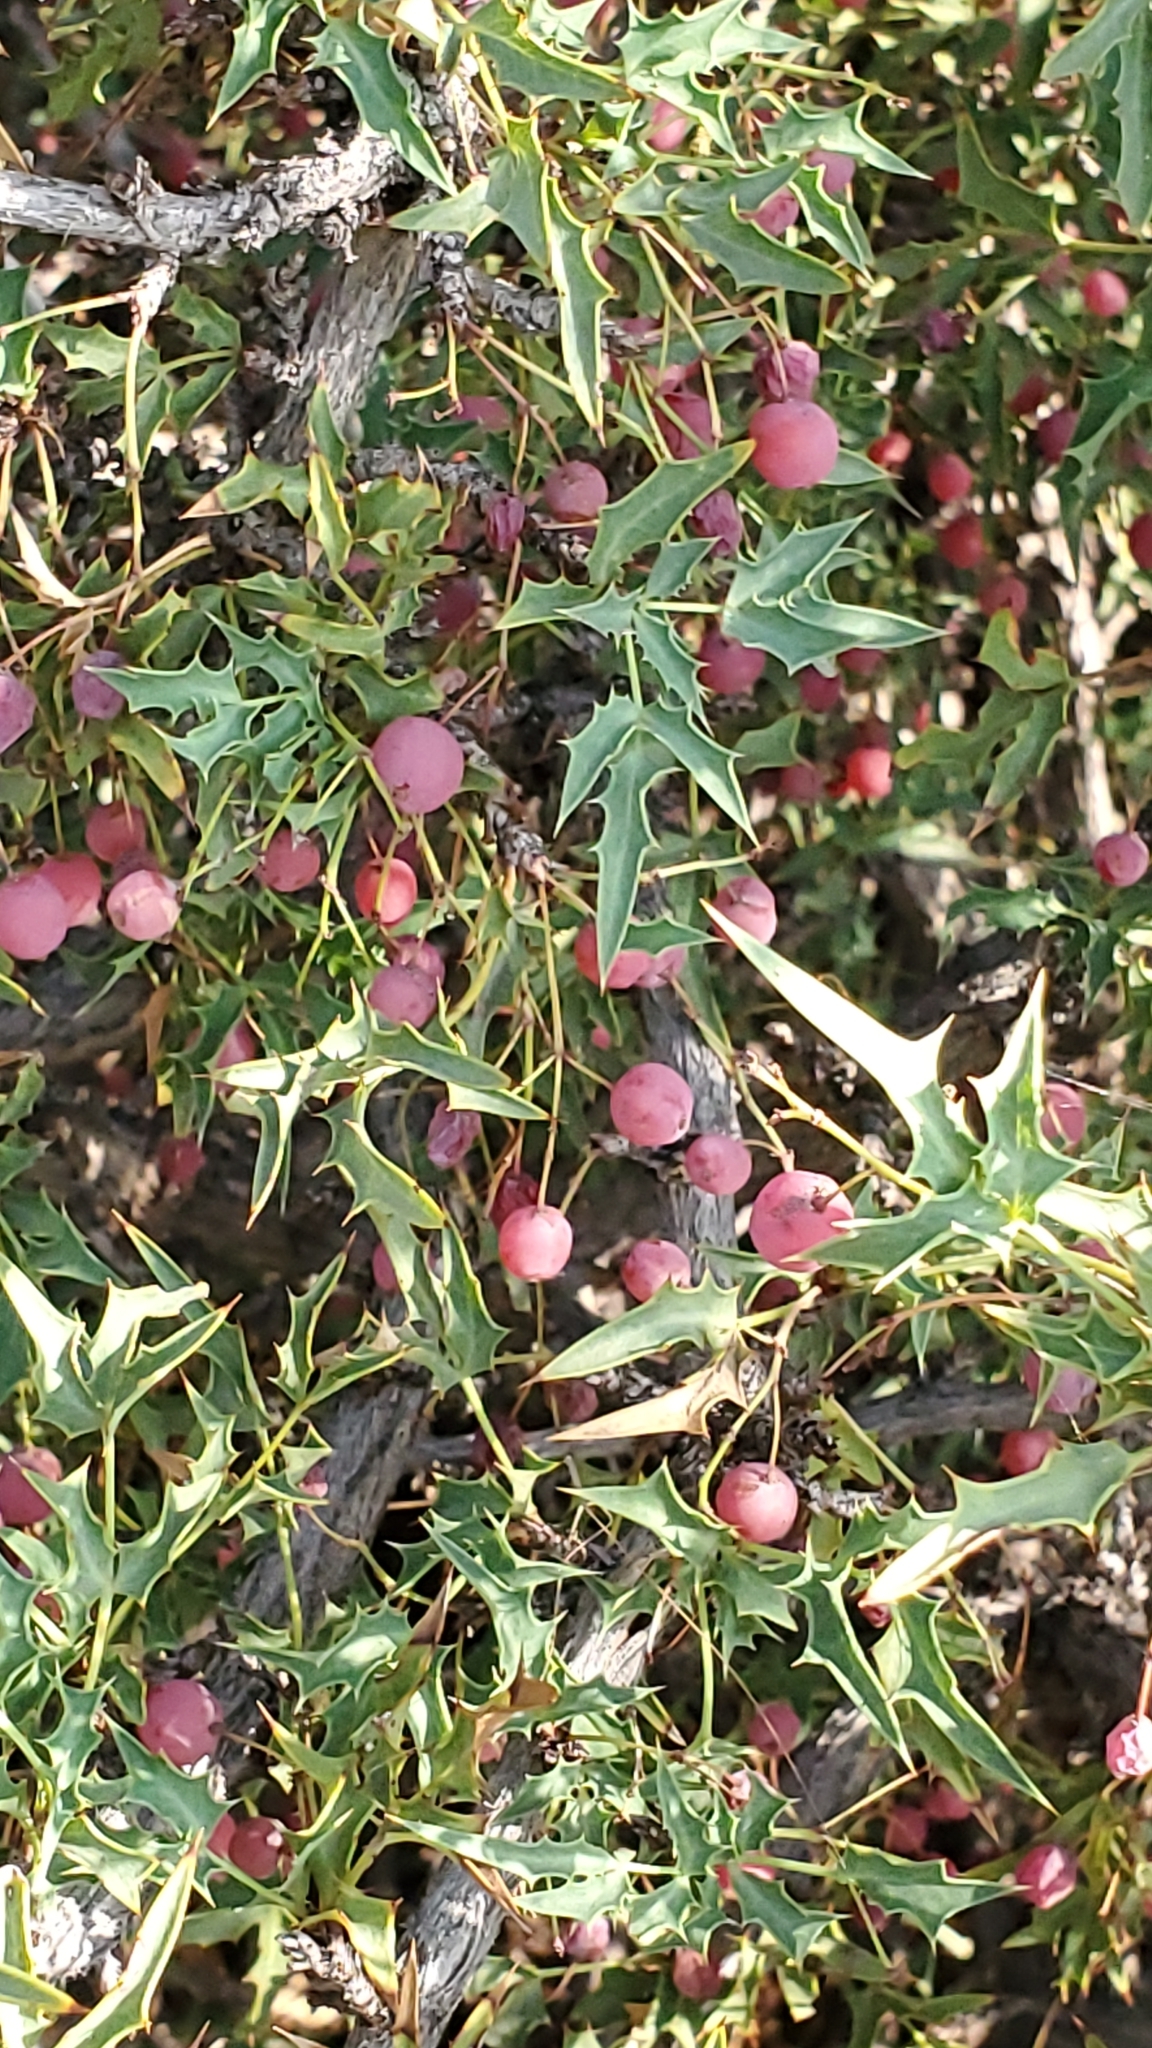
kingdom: Plantae
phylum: Tracheophyta
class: Magnoliopsida
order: Ranunculales
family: Berberidaceae
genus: Alloberberis
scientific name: Alloberberis haematocarpa
